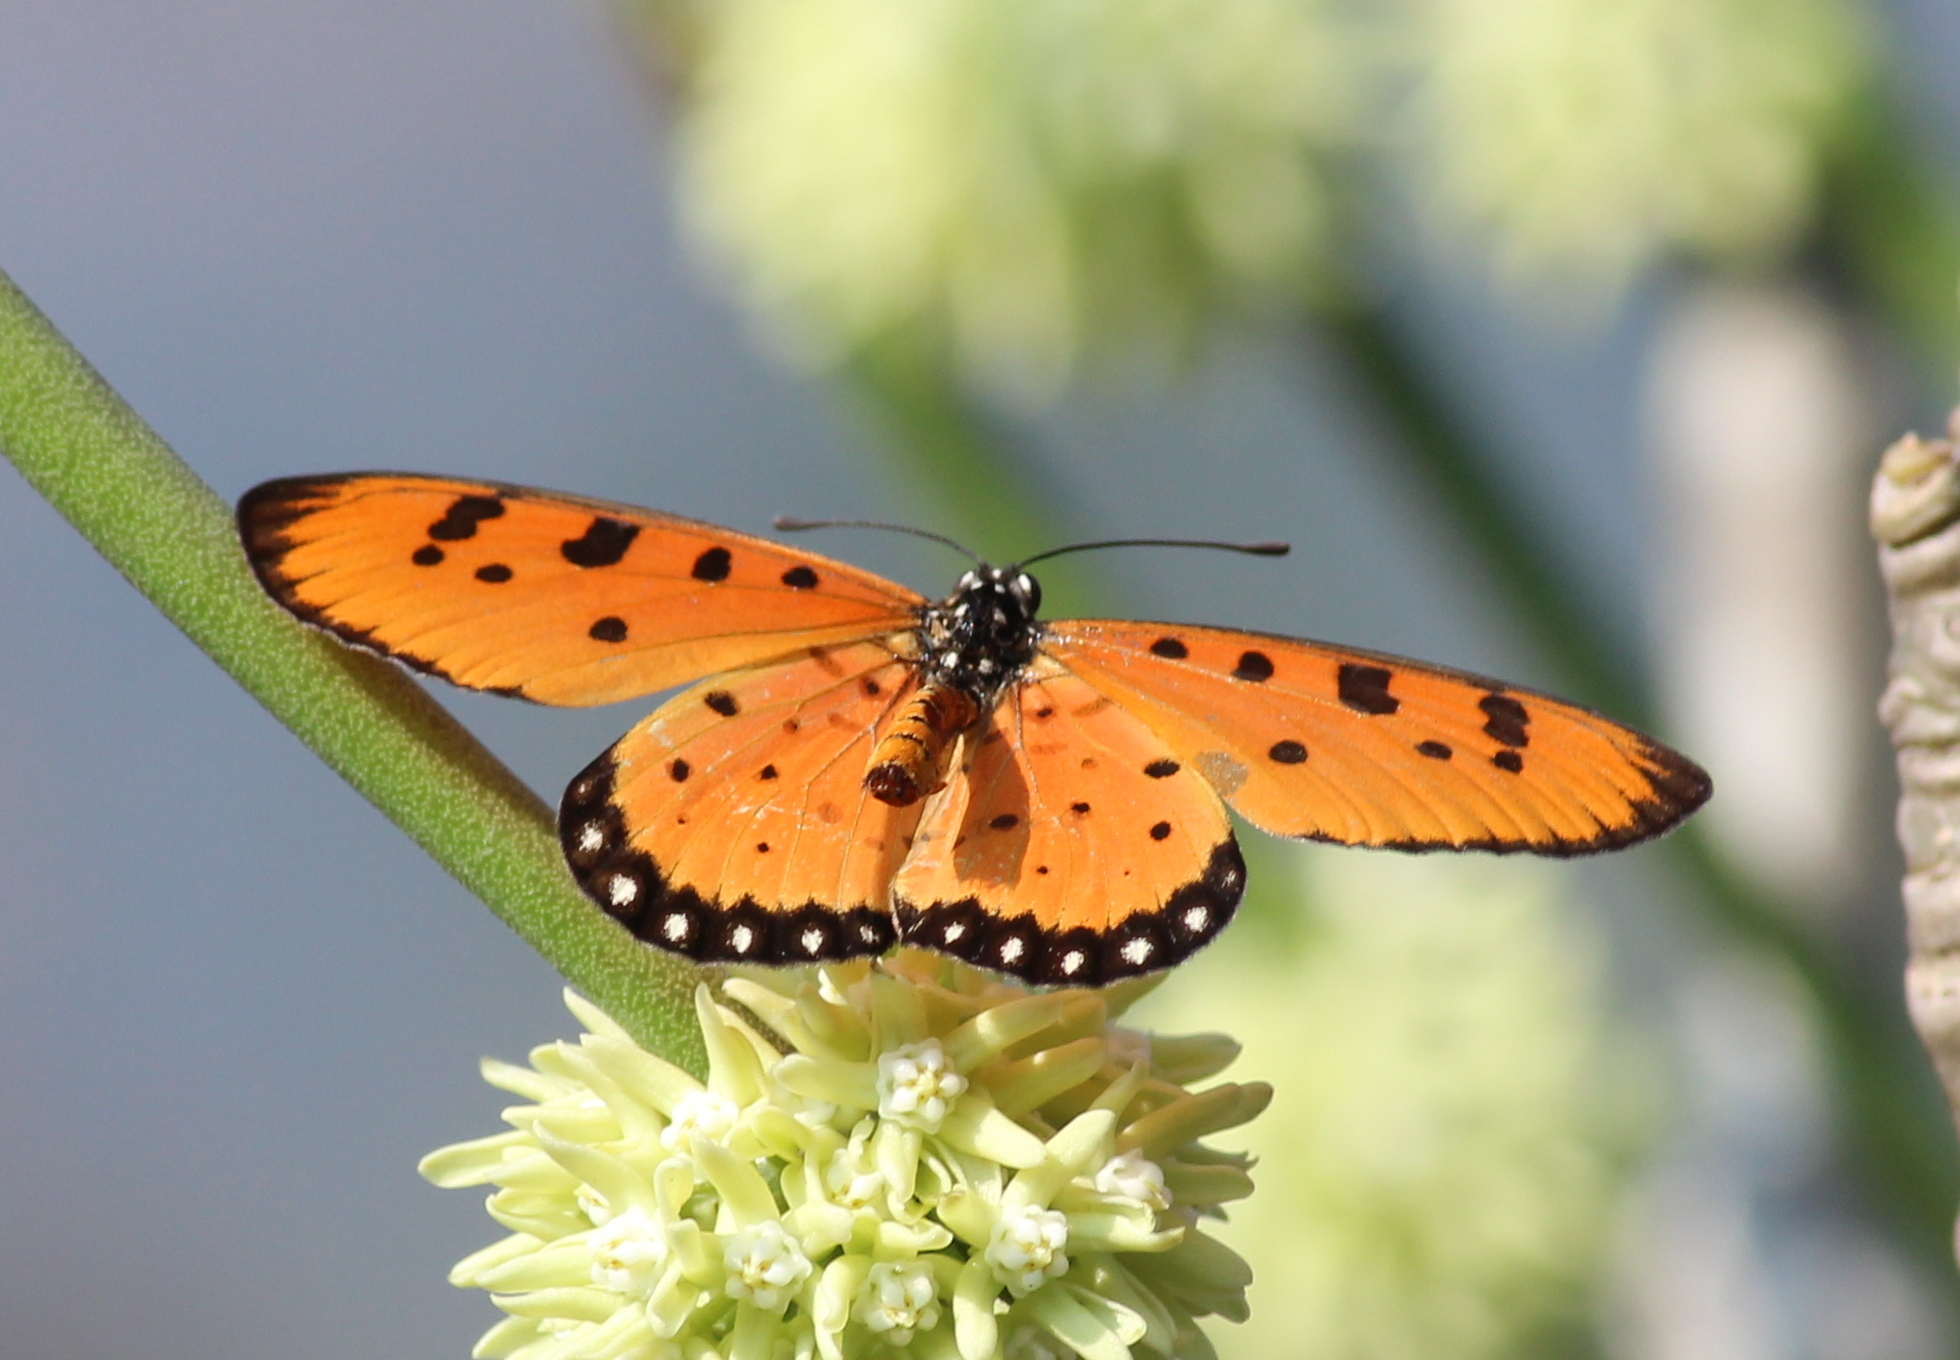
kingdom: Animalia
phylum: Arthropoda
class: Insecta
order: Lepidoptera
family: Nymphalidae
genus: Acraea
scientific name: Acraea terpsicore
